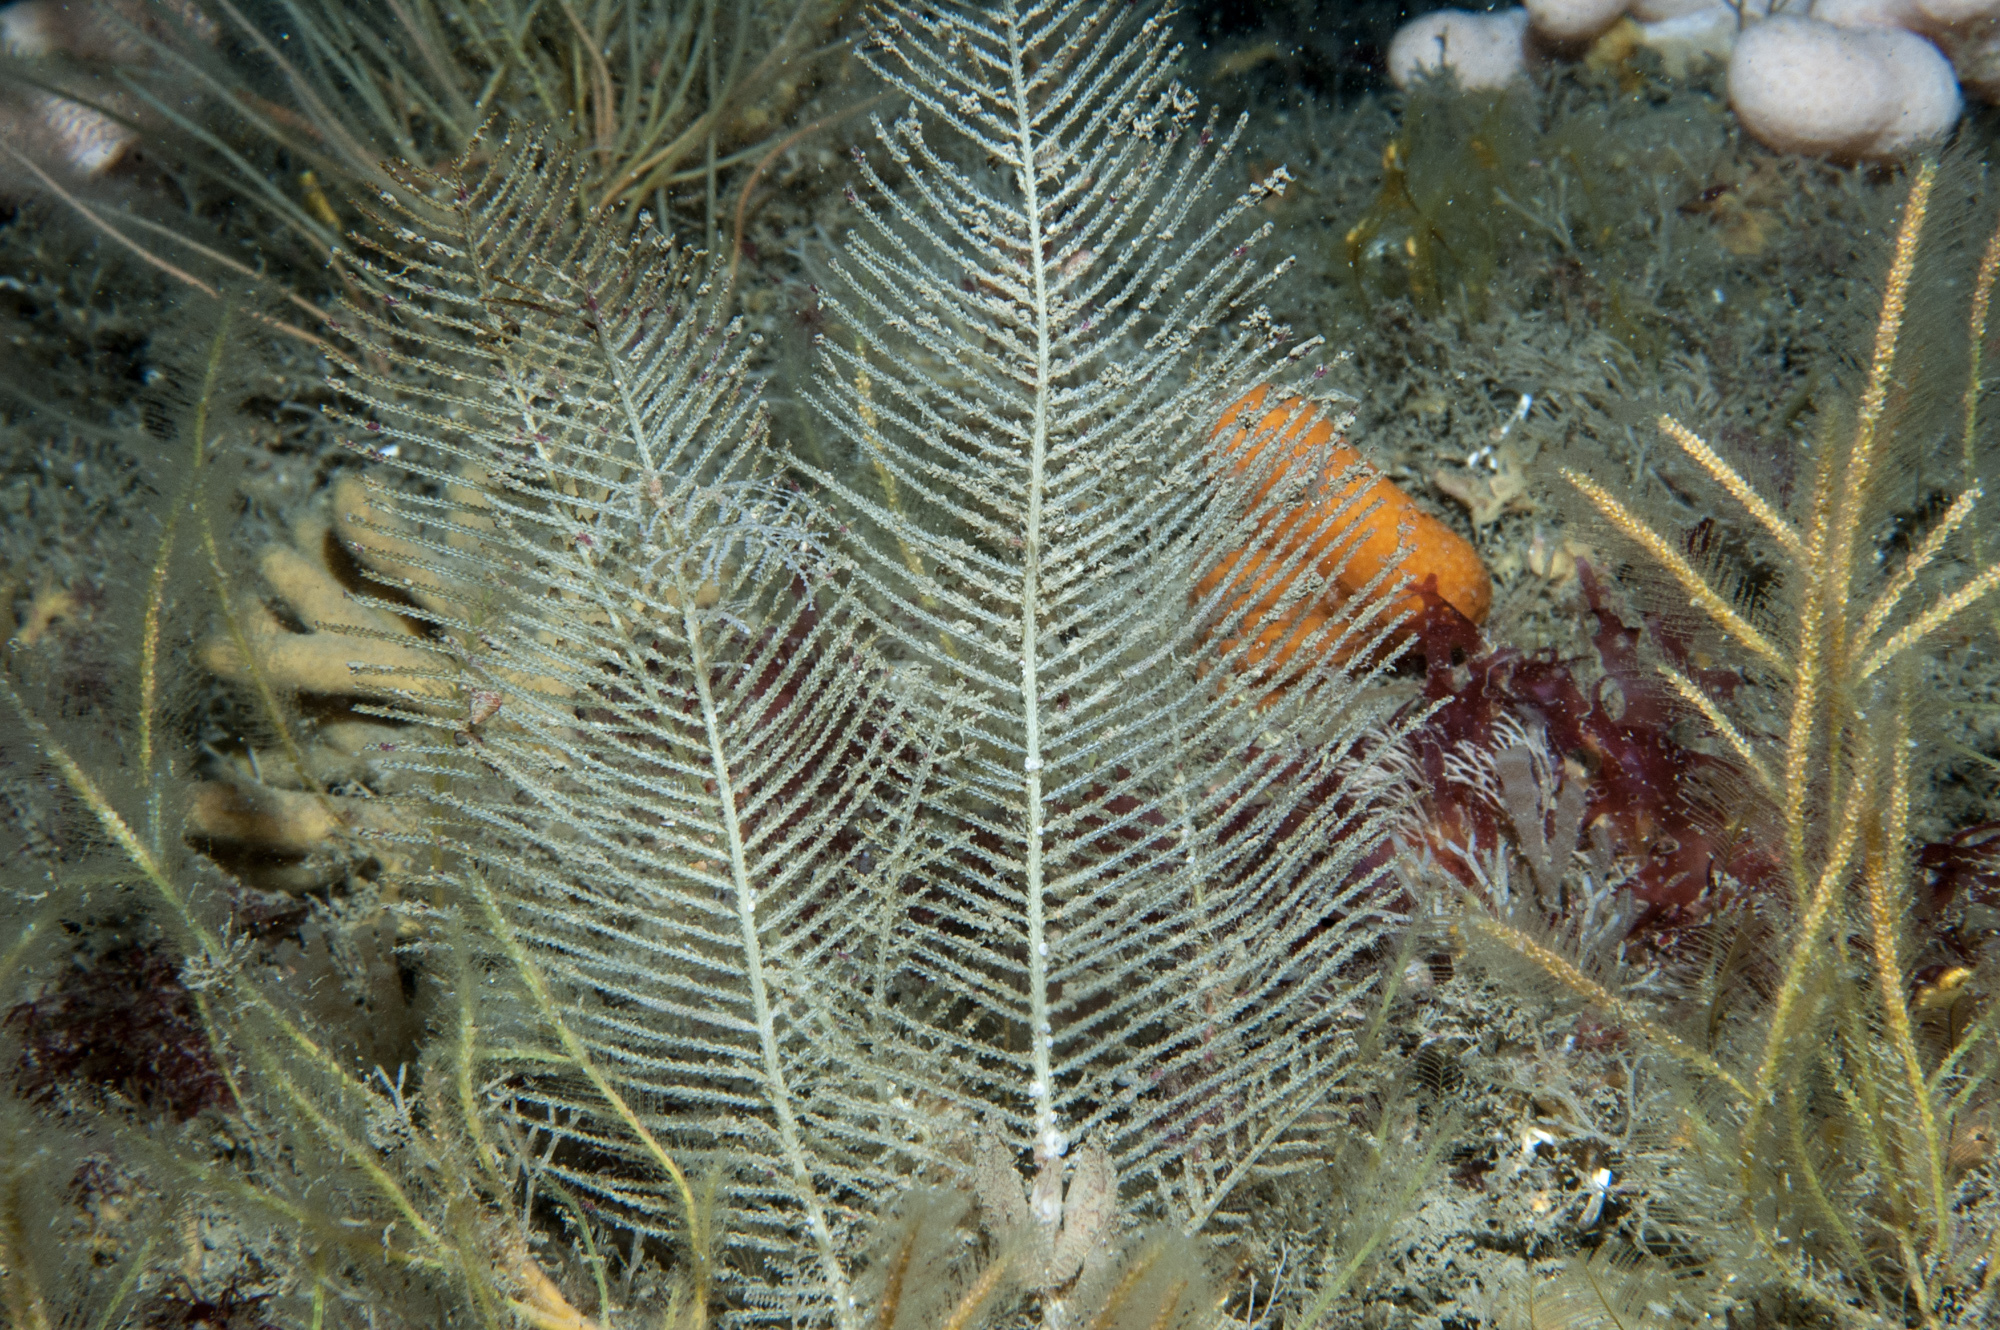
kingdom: Animalia
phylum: Cnidaria
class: Hydrozoa
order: Leptothecata
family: Sertulariidae
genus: Diphasia
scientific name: Diphasia nigra
